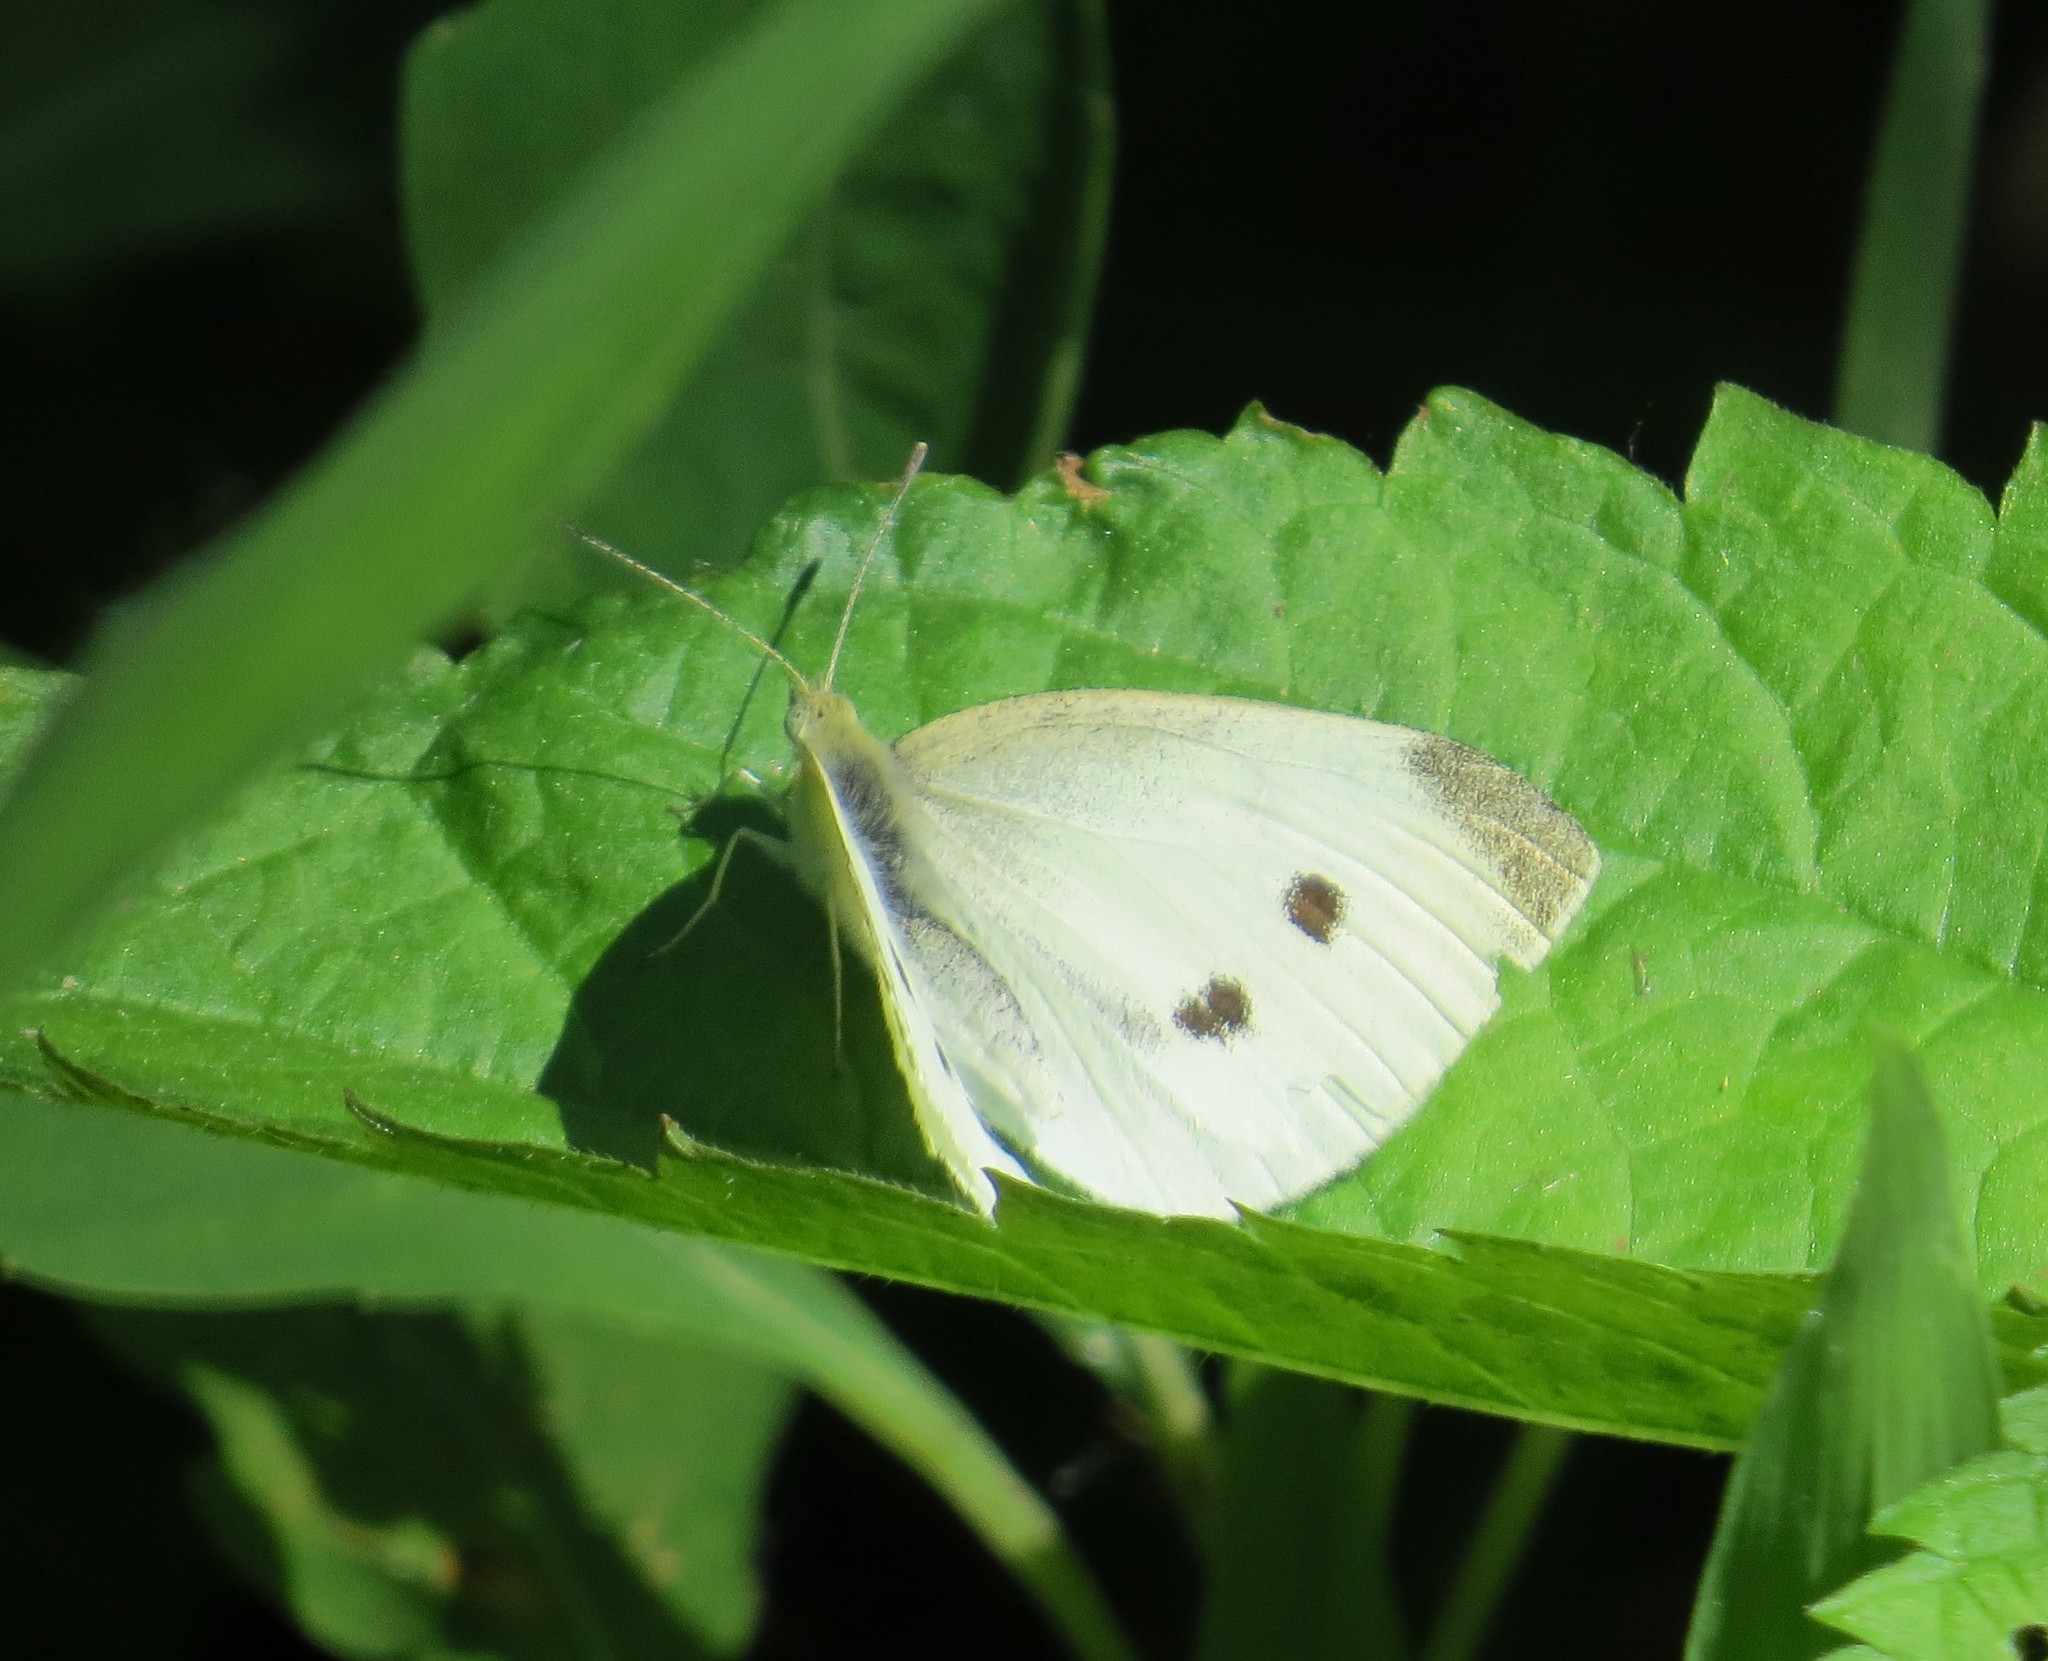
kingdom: Animalia
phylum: Arthropoda
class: Insecta
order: Lepidoptera
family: Pieridae
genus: Pieris
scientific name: Pieris rapae
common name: Small white
